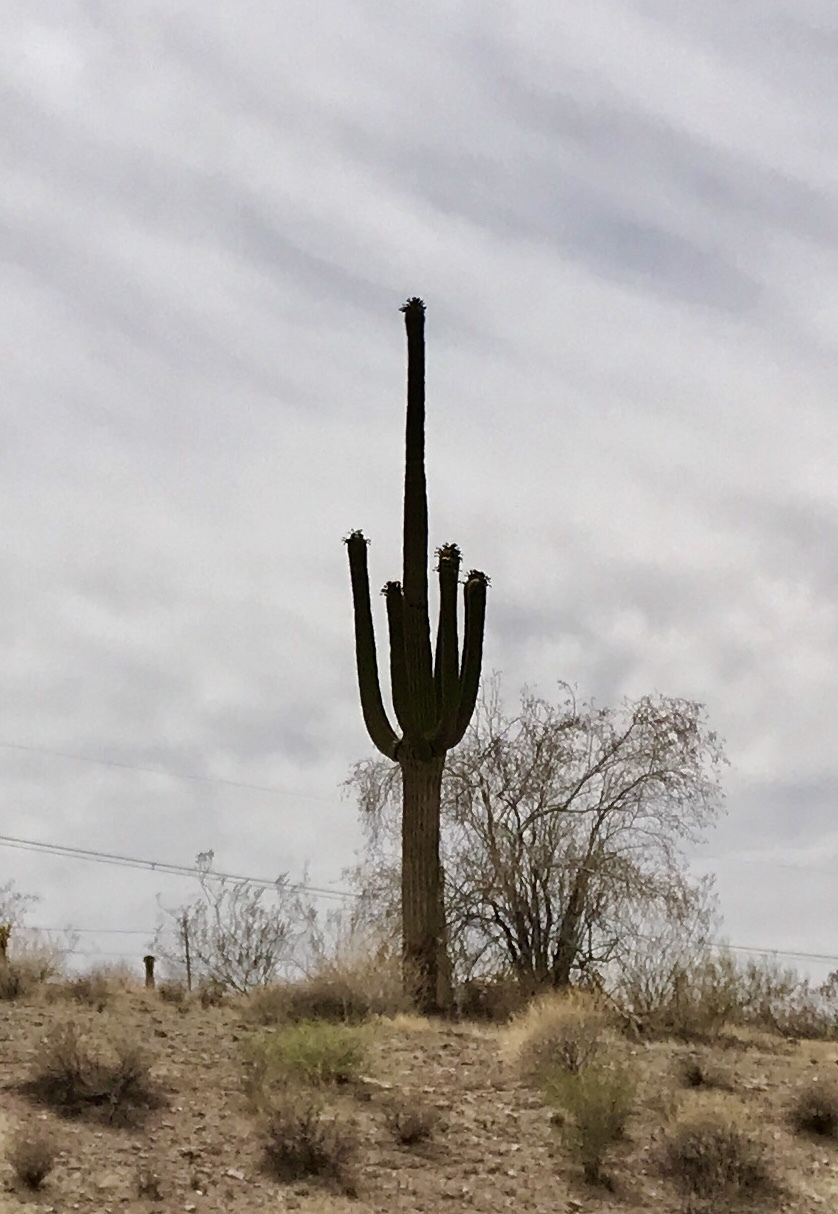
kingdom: Plantae
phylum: Tracheophyta
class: Magnoliopsida
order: Caryophyllales
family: Cactaceae
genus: Carnegiea
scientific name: Carnegiea gigantea
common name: Saguaro
